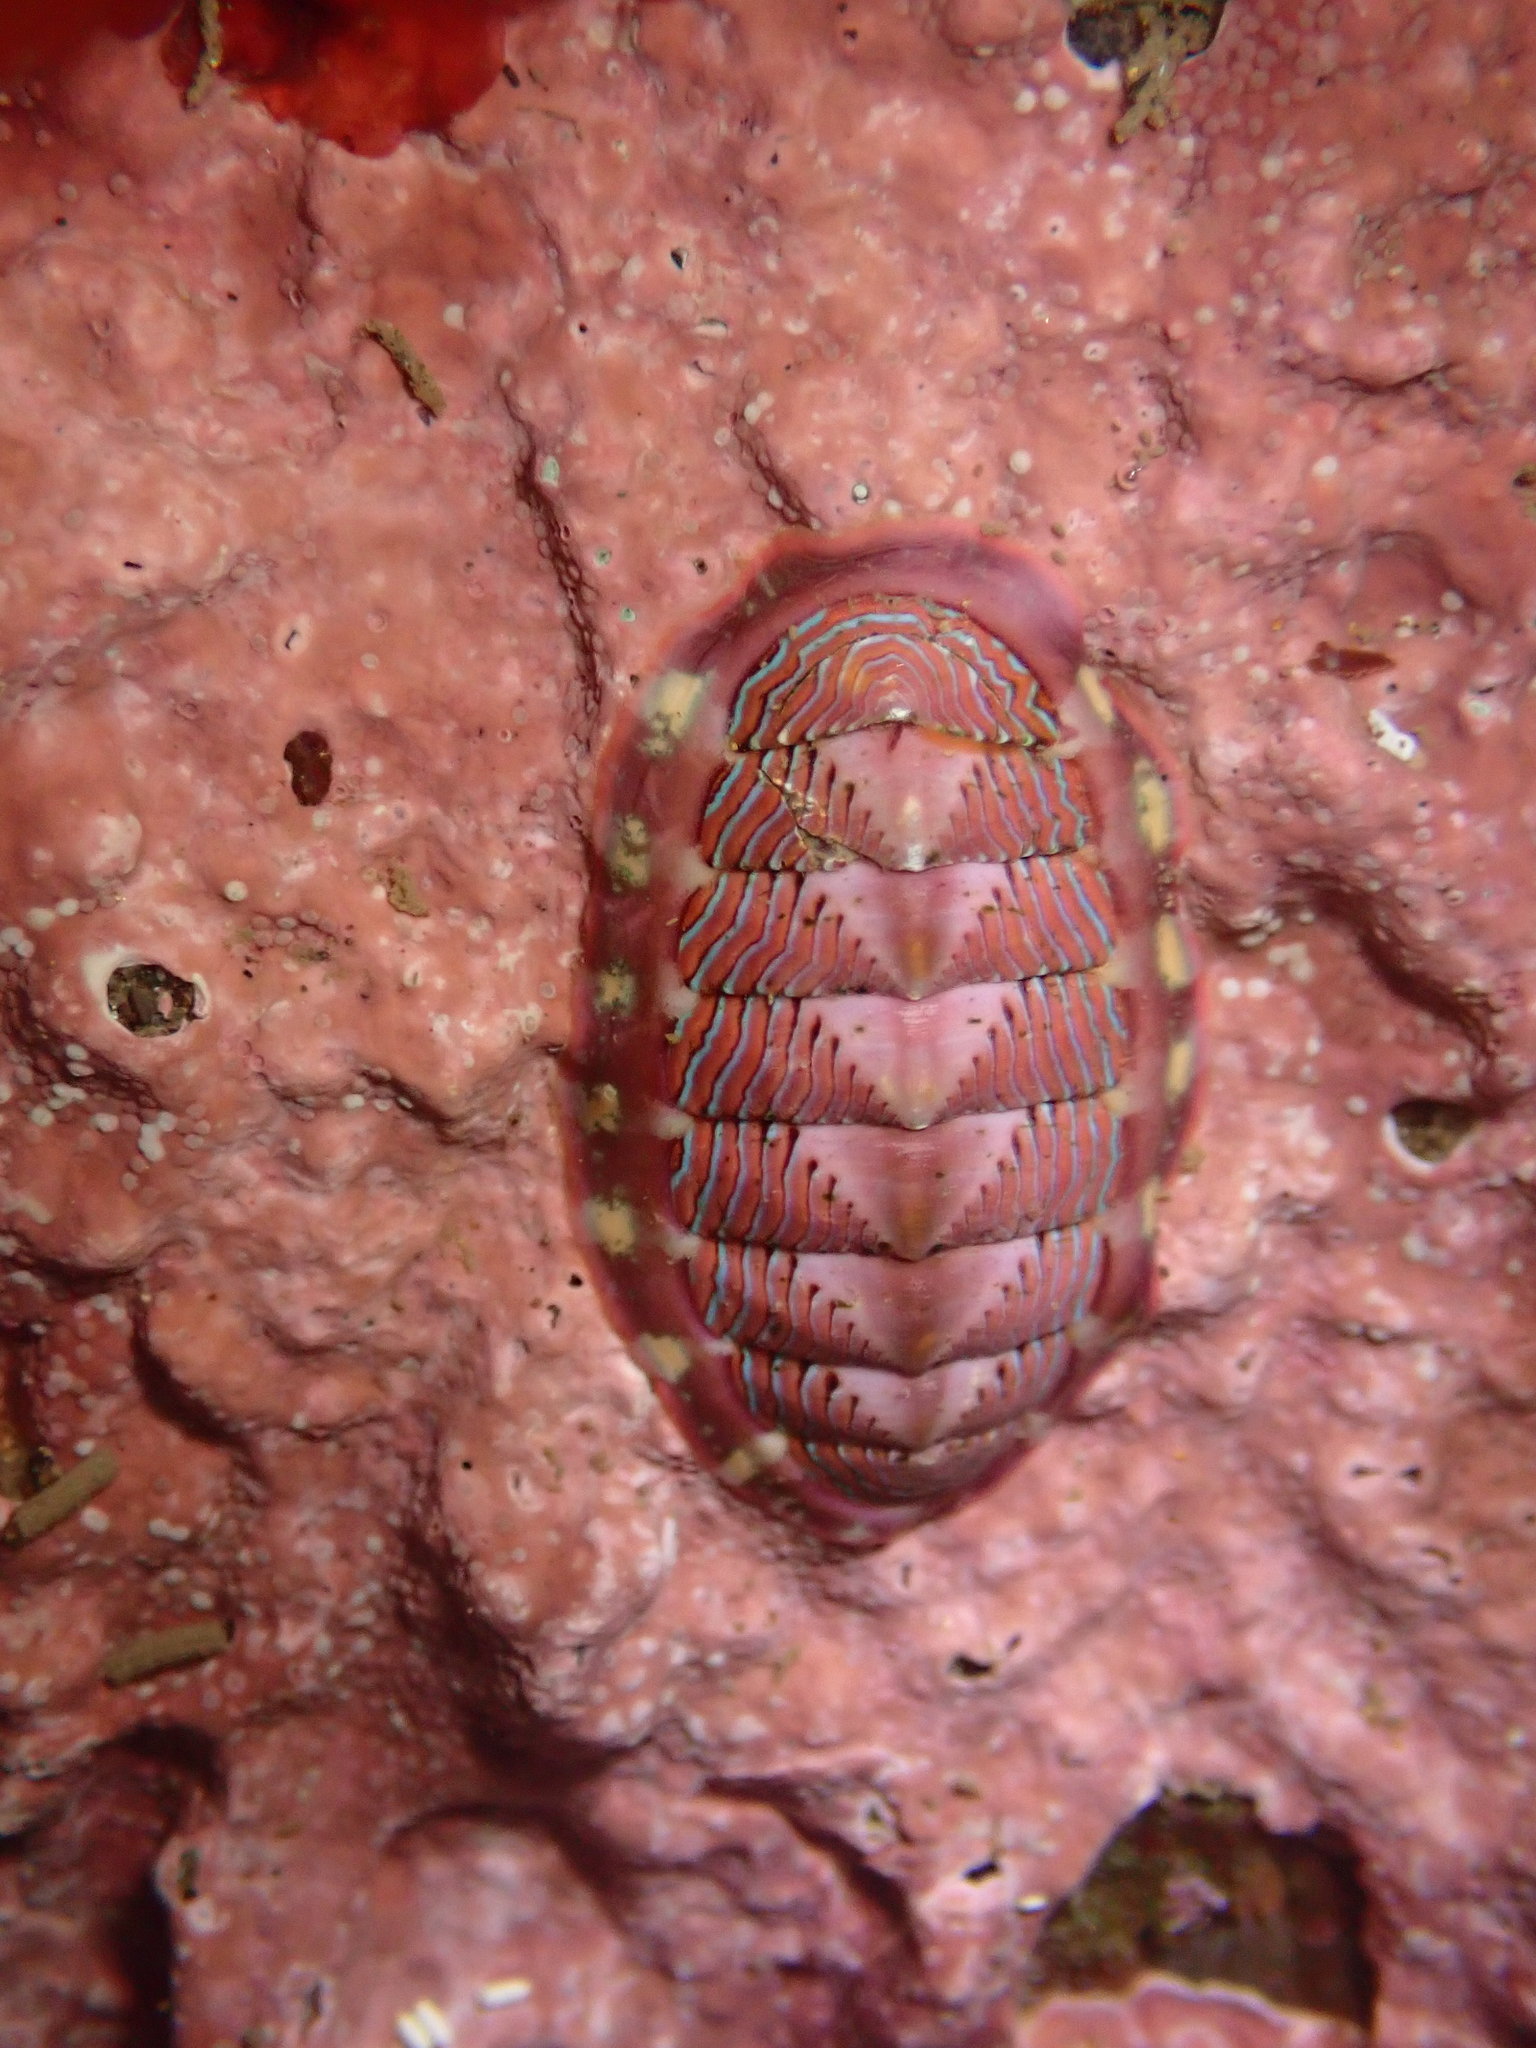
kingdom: Animalia
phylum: Mollusca
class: Polyplacophora
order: Chitonida
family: Tonicellidae
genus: Tonicella
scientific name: Tonicella lineata
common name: Lined chiton
